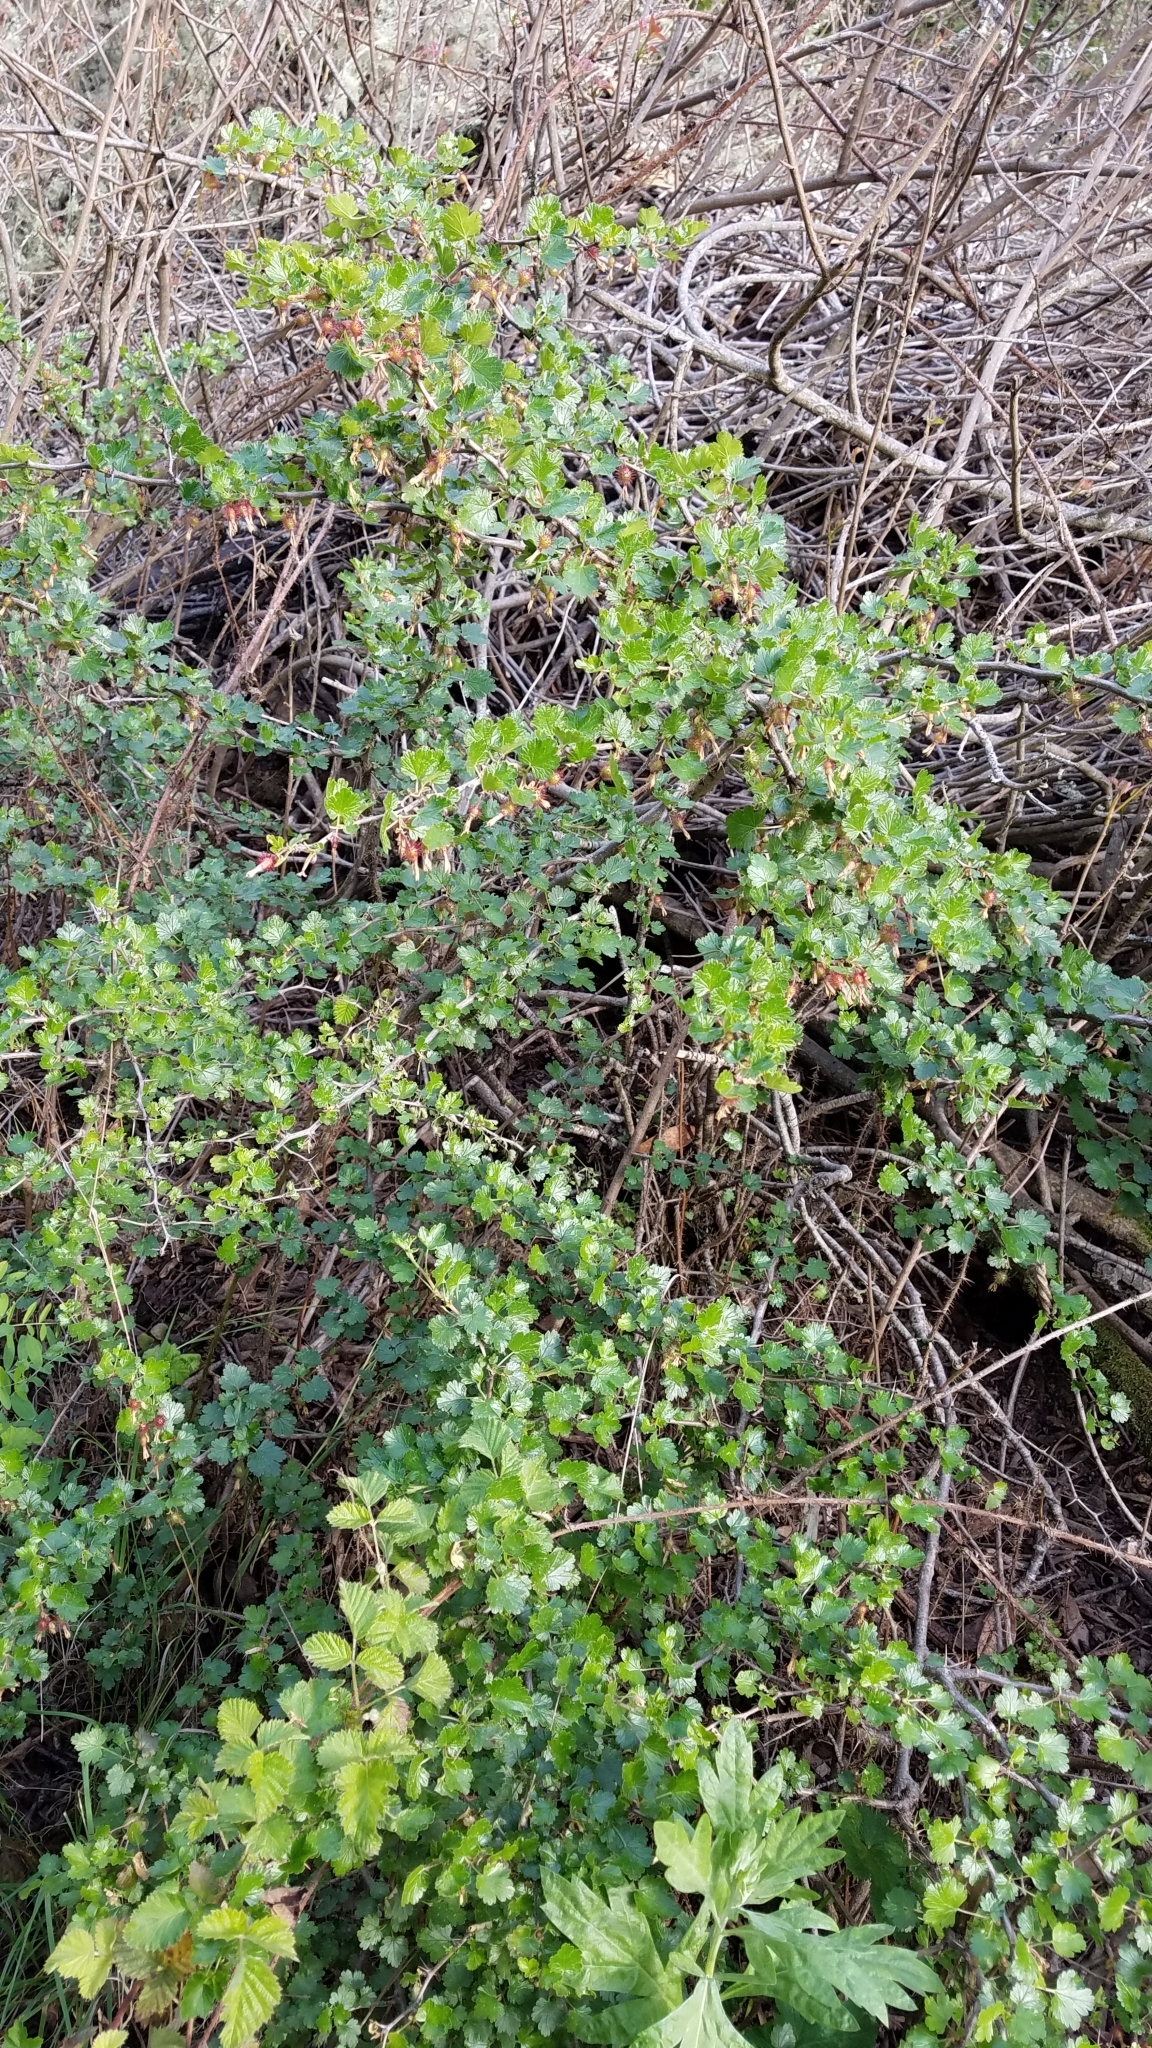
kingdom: Plantae
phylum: Tracheophyta
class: Magnoliopsida
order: Saxifragales
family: Grossulariaceae
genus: Ribes
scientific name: Ribes californicum
